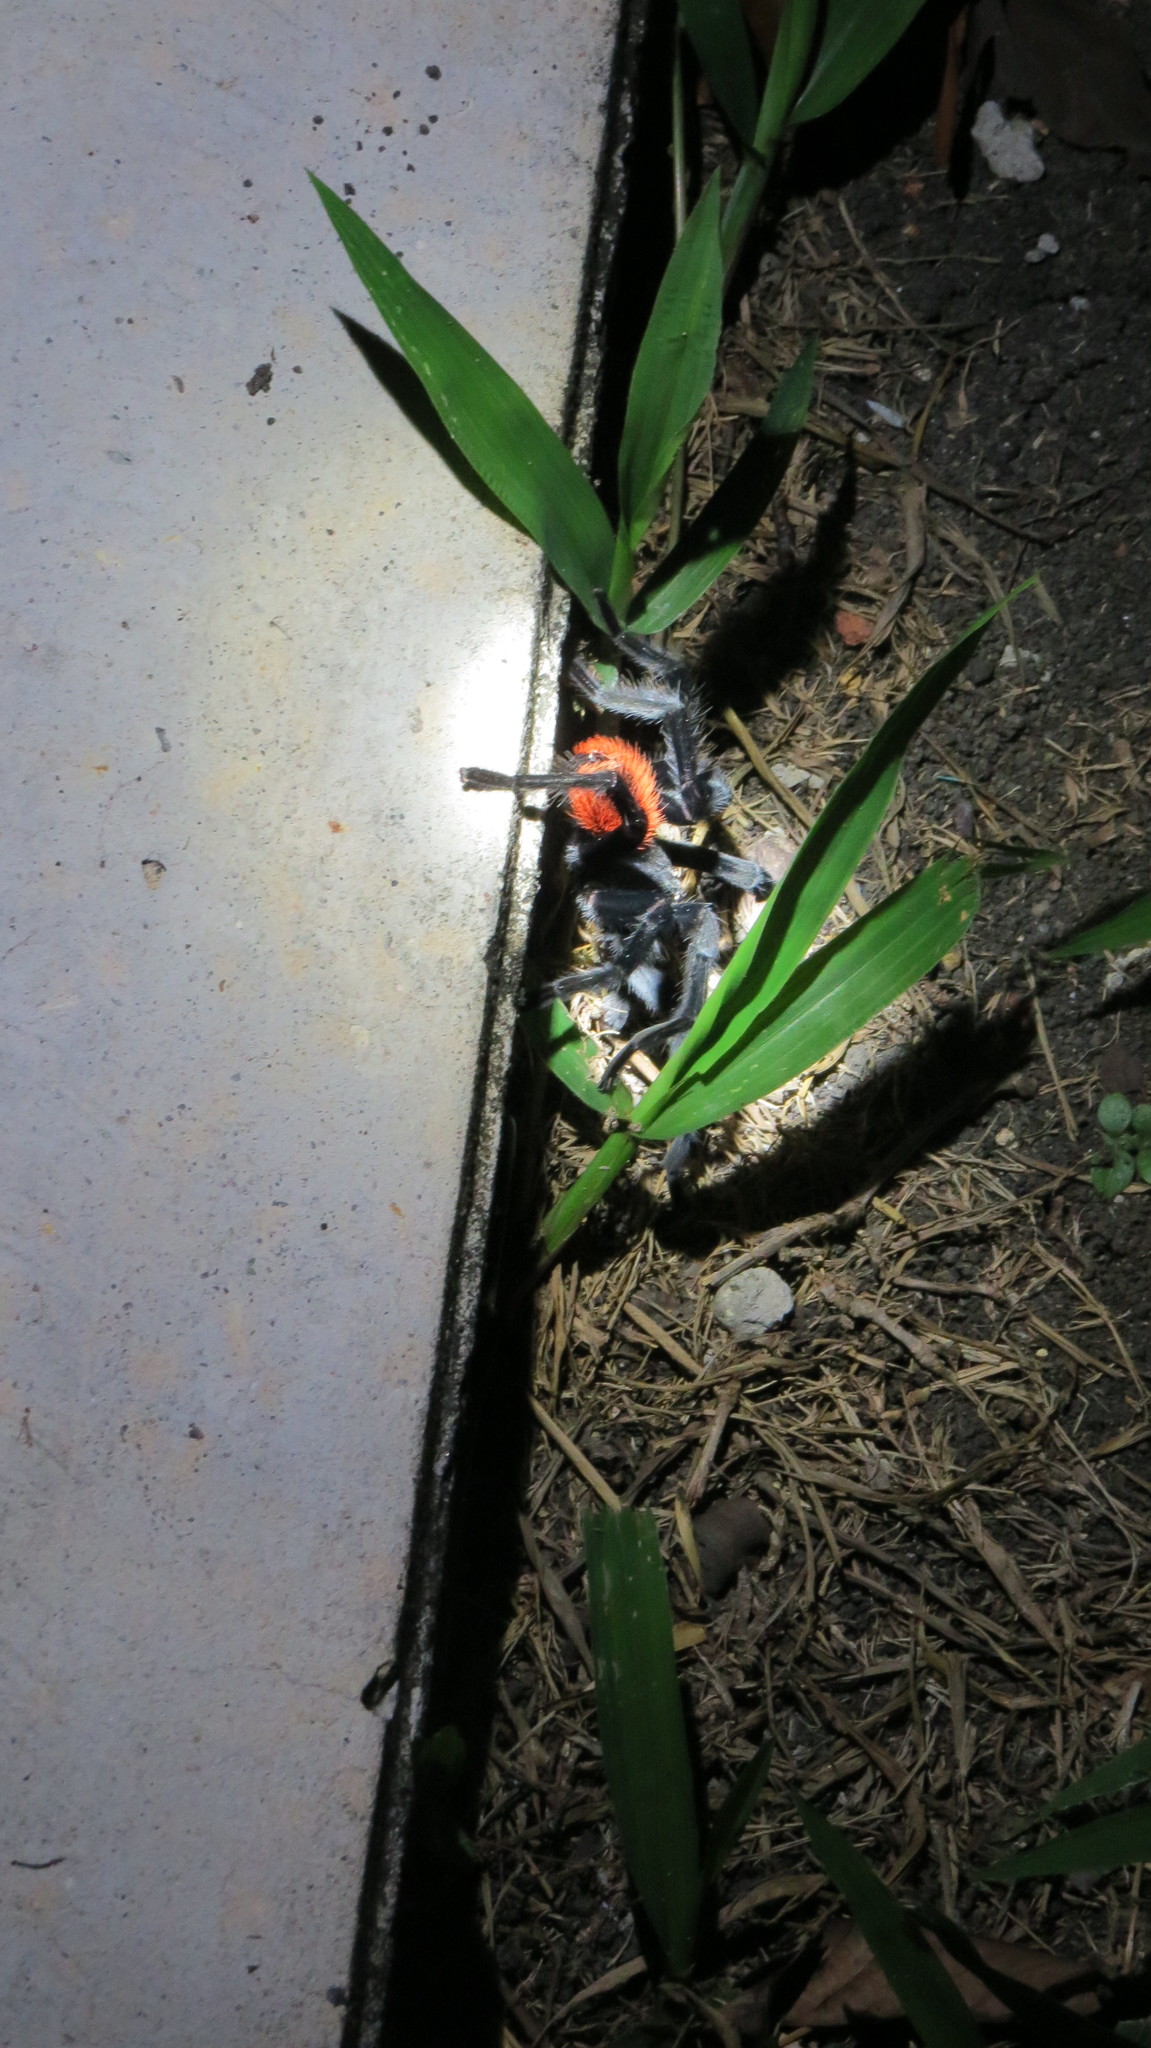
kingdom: Animalia
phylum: Arthropoda
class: Arachnida
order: Araneae
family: Theraphosidae
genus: Tliltocatl
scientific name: Tliltocatl vagans
